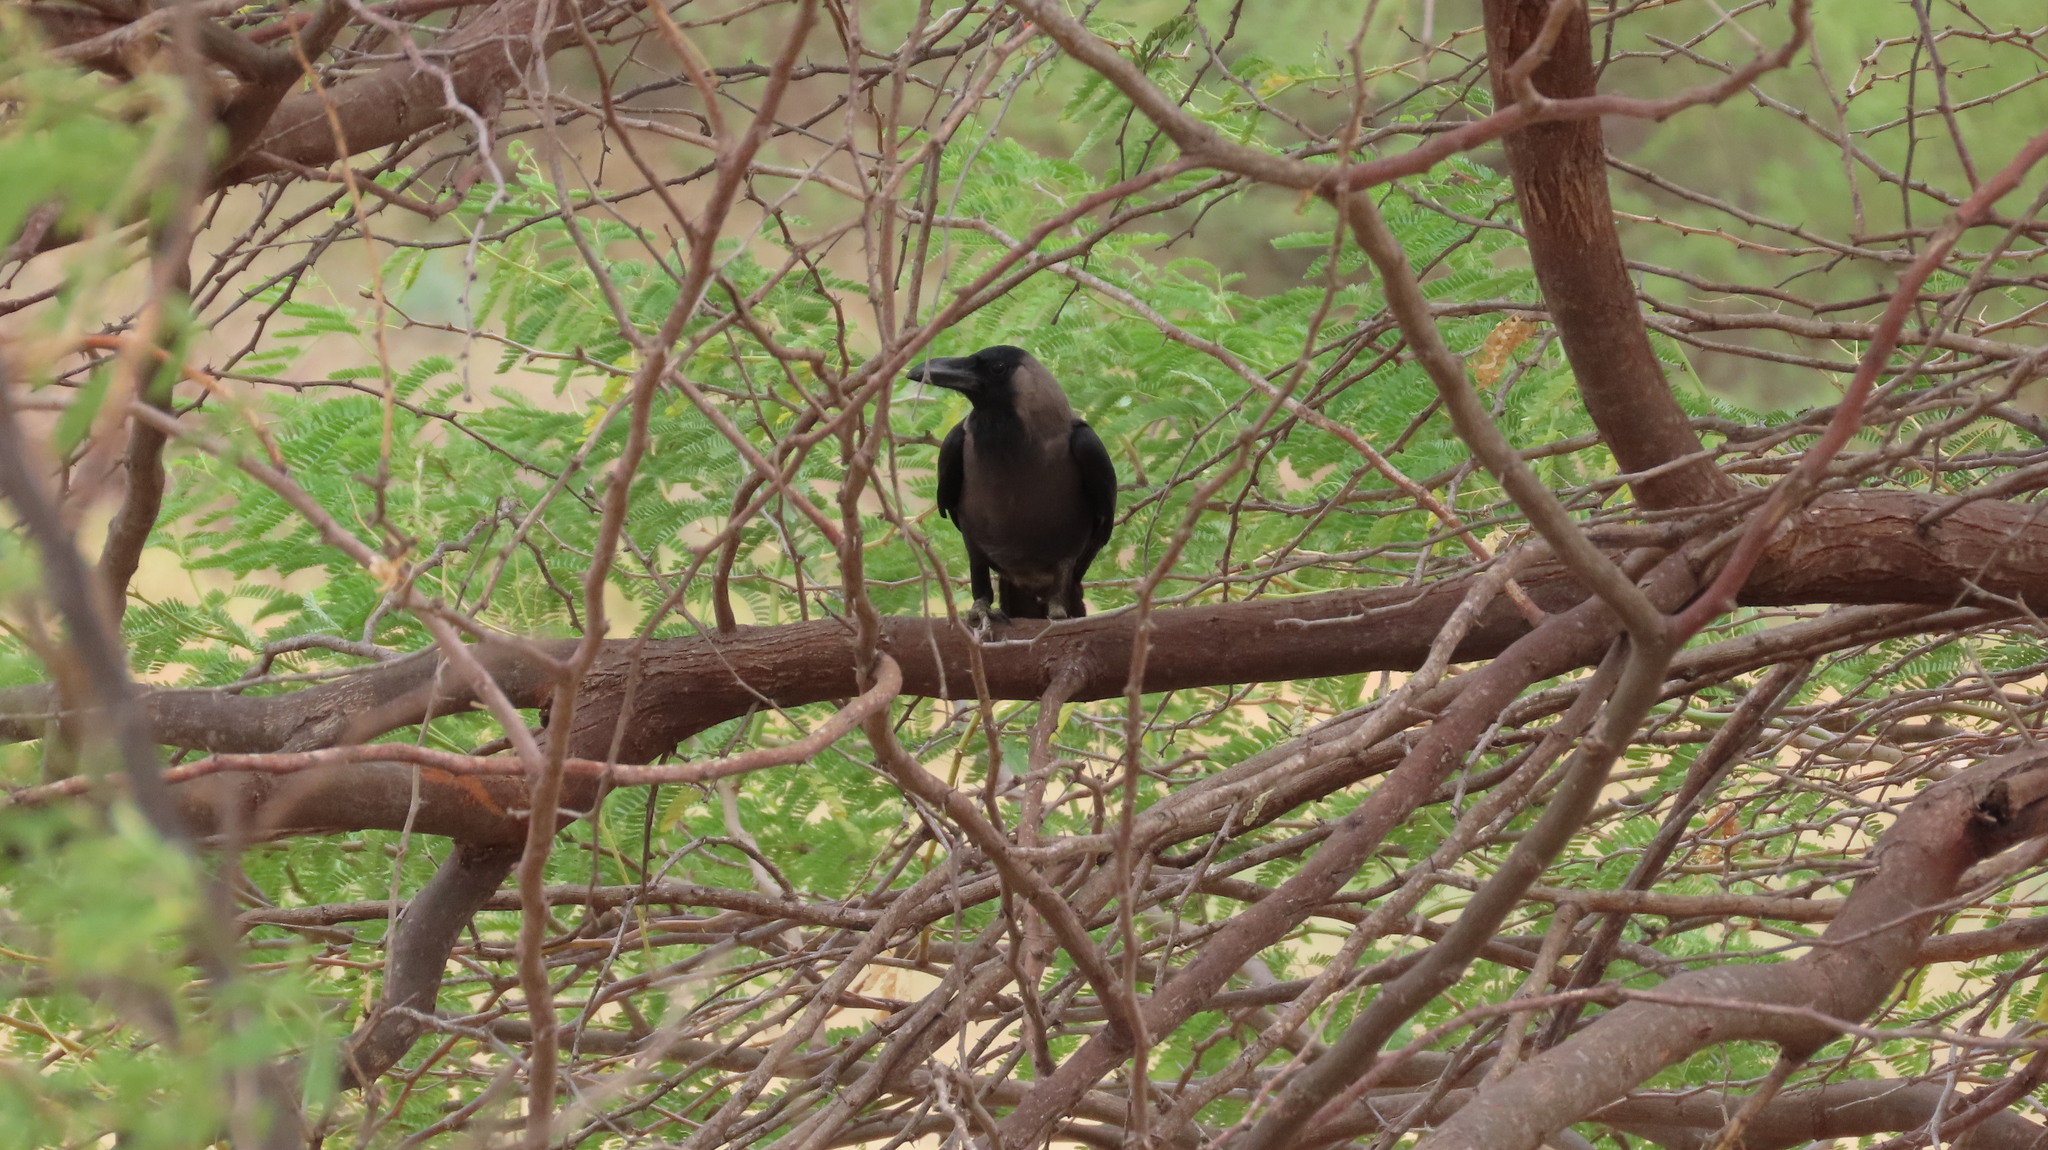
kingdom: Animalia
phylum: Chordata
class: Aves
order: Passeriformes
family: Corvidae
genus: Corvus
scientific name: Corvus splendens
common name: House crow
